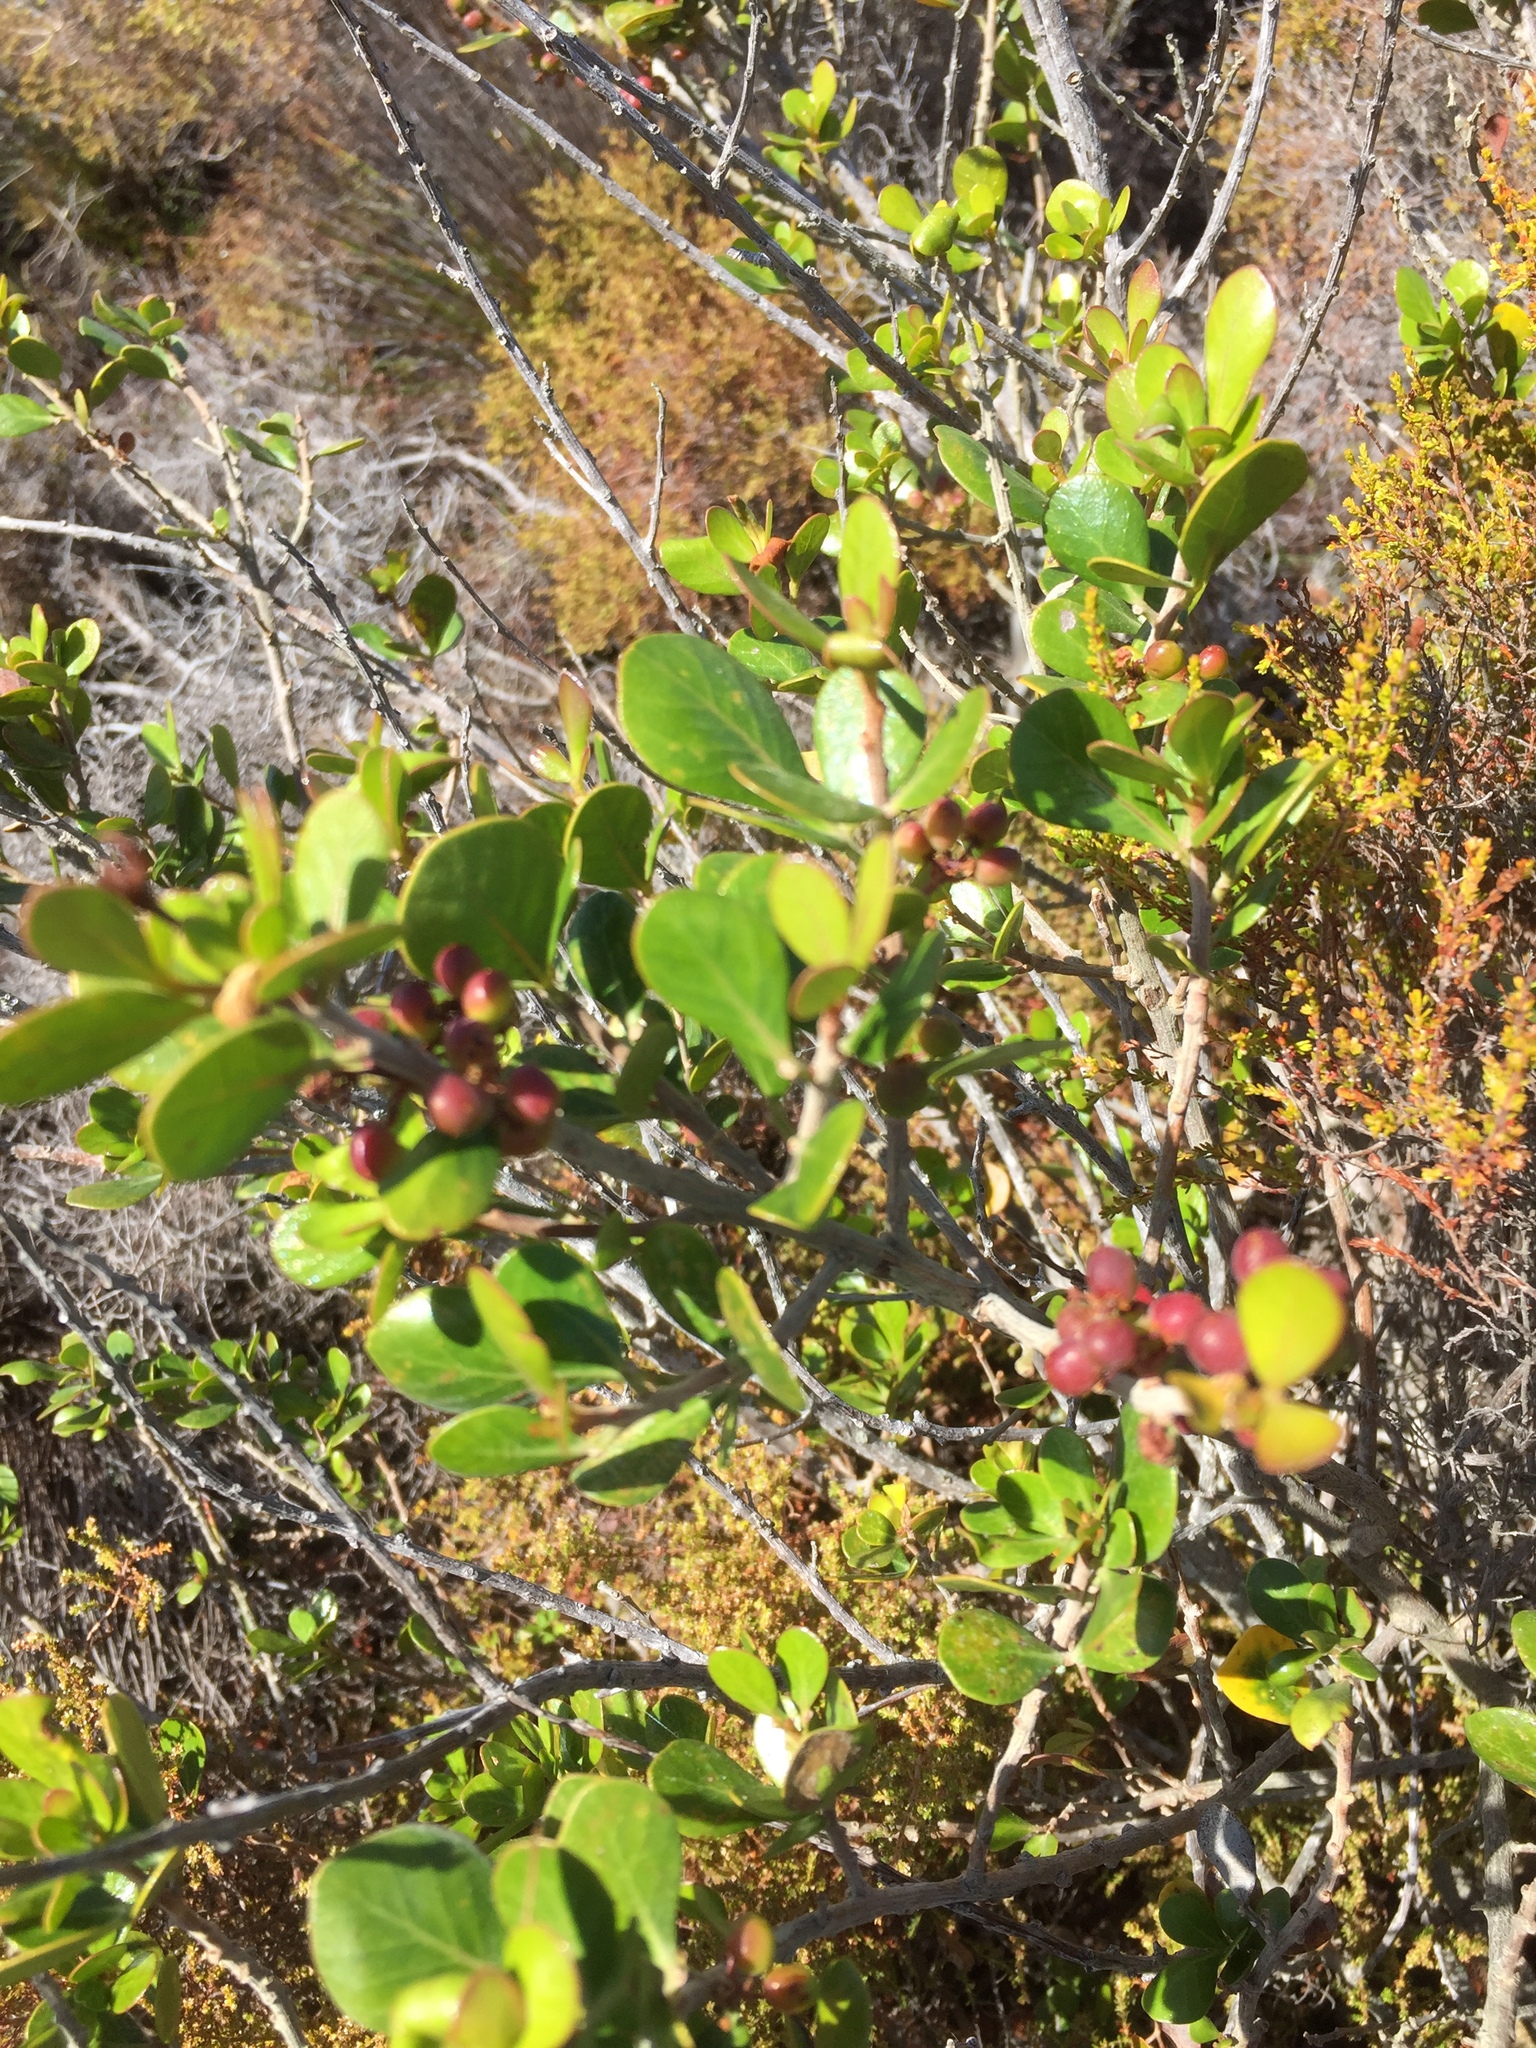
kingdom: Plantae
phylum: Tracheophyta
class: Magnoliopsida
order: Sapindales
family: Anacardiaceae
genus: Searsia
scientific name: Searsia lucida
